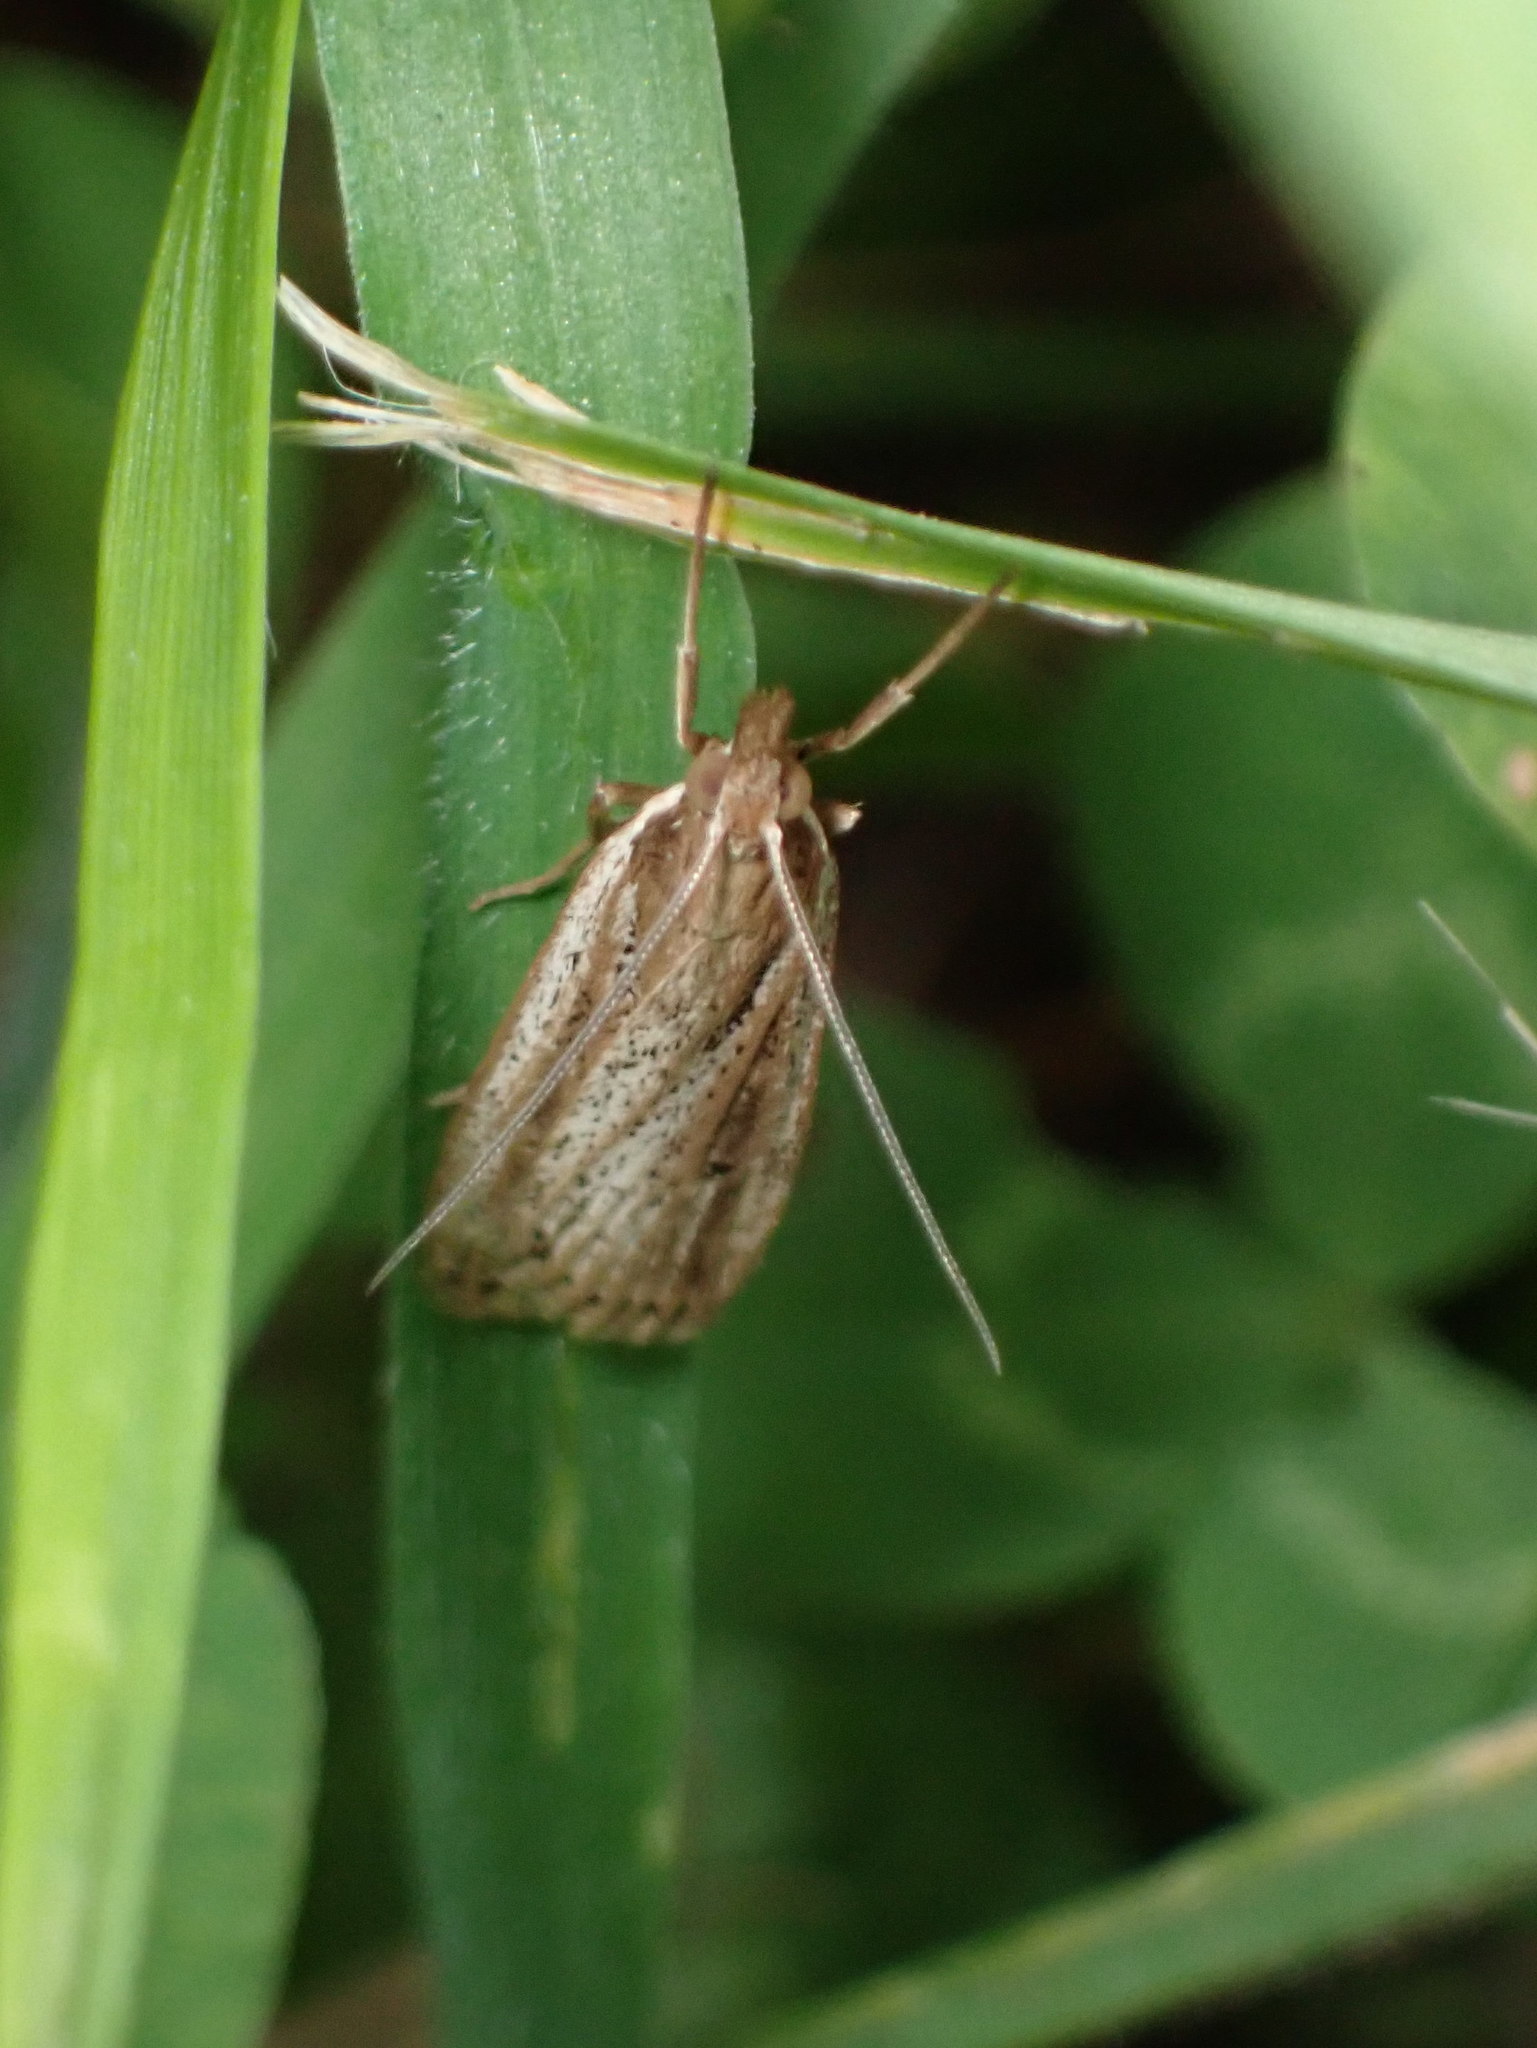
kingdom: Animalia
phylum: Arthropoda
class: Insecta
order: Lepidoptera
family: Crambidae
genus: Eudonia
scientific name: Eudonia sabulosella
